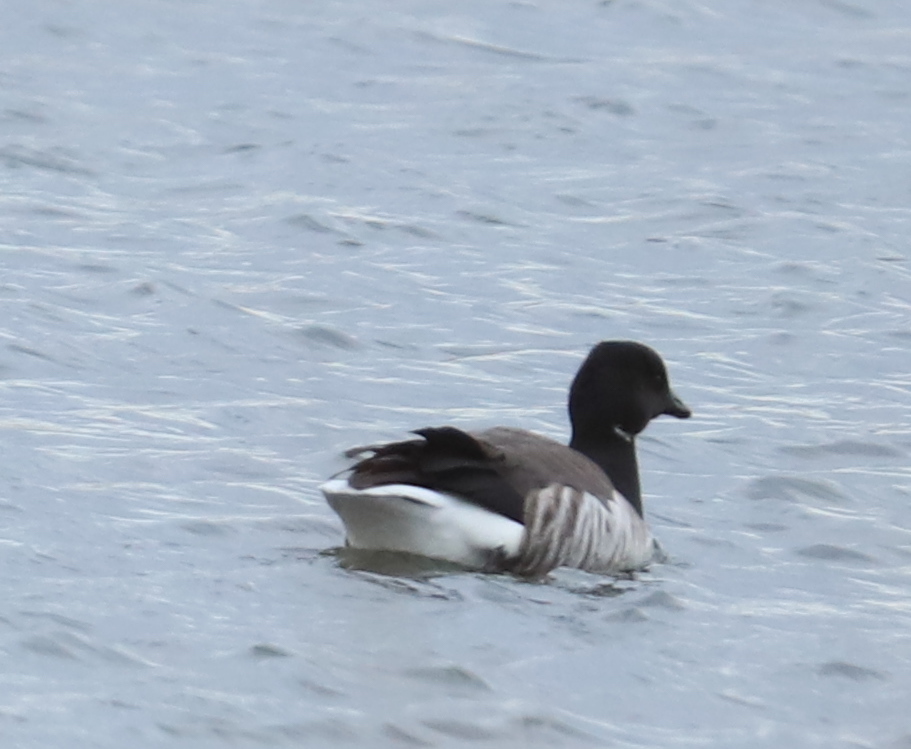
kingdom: Animalia
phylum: Chordata
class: Aves
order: Anseriformes
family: Anatidae
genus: Branta
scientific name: Branta bernicla
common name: Brant goose
